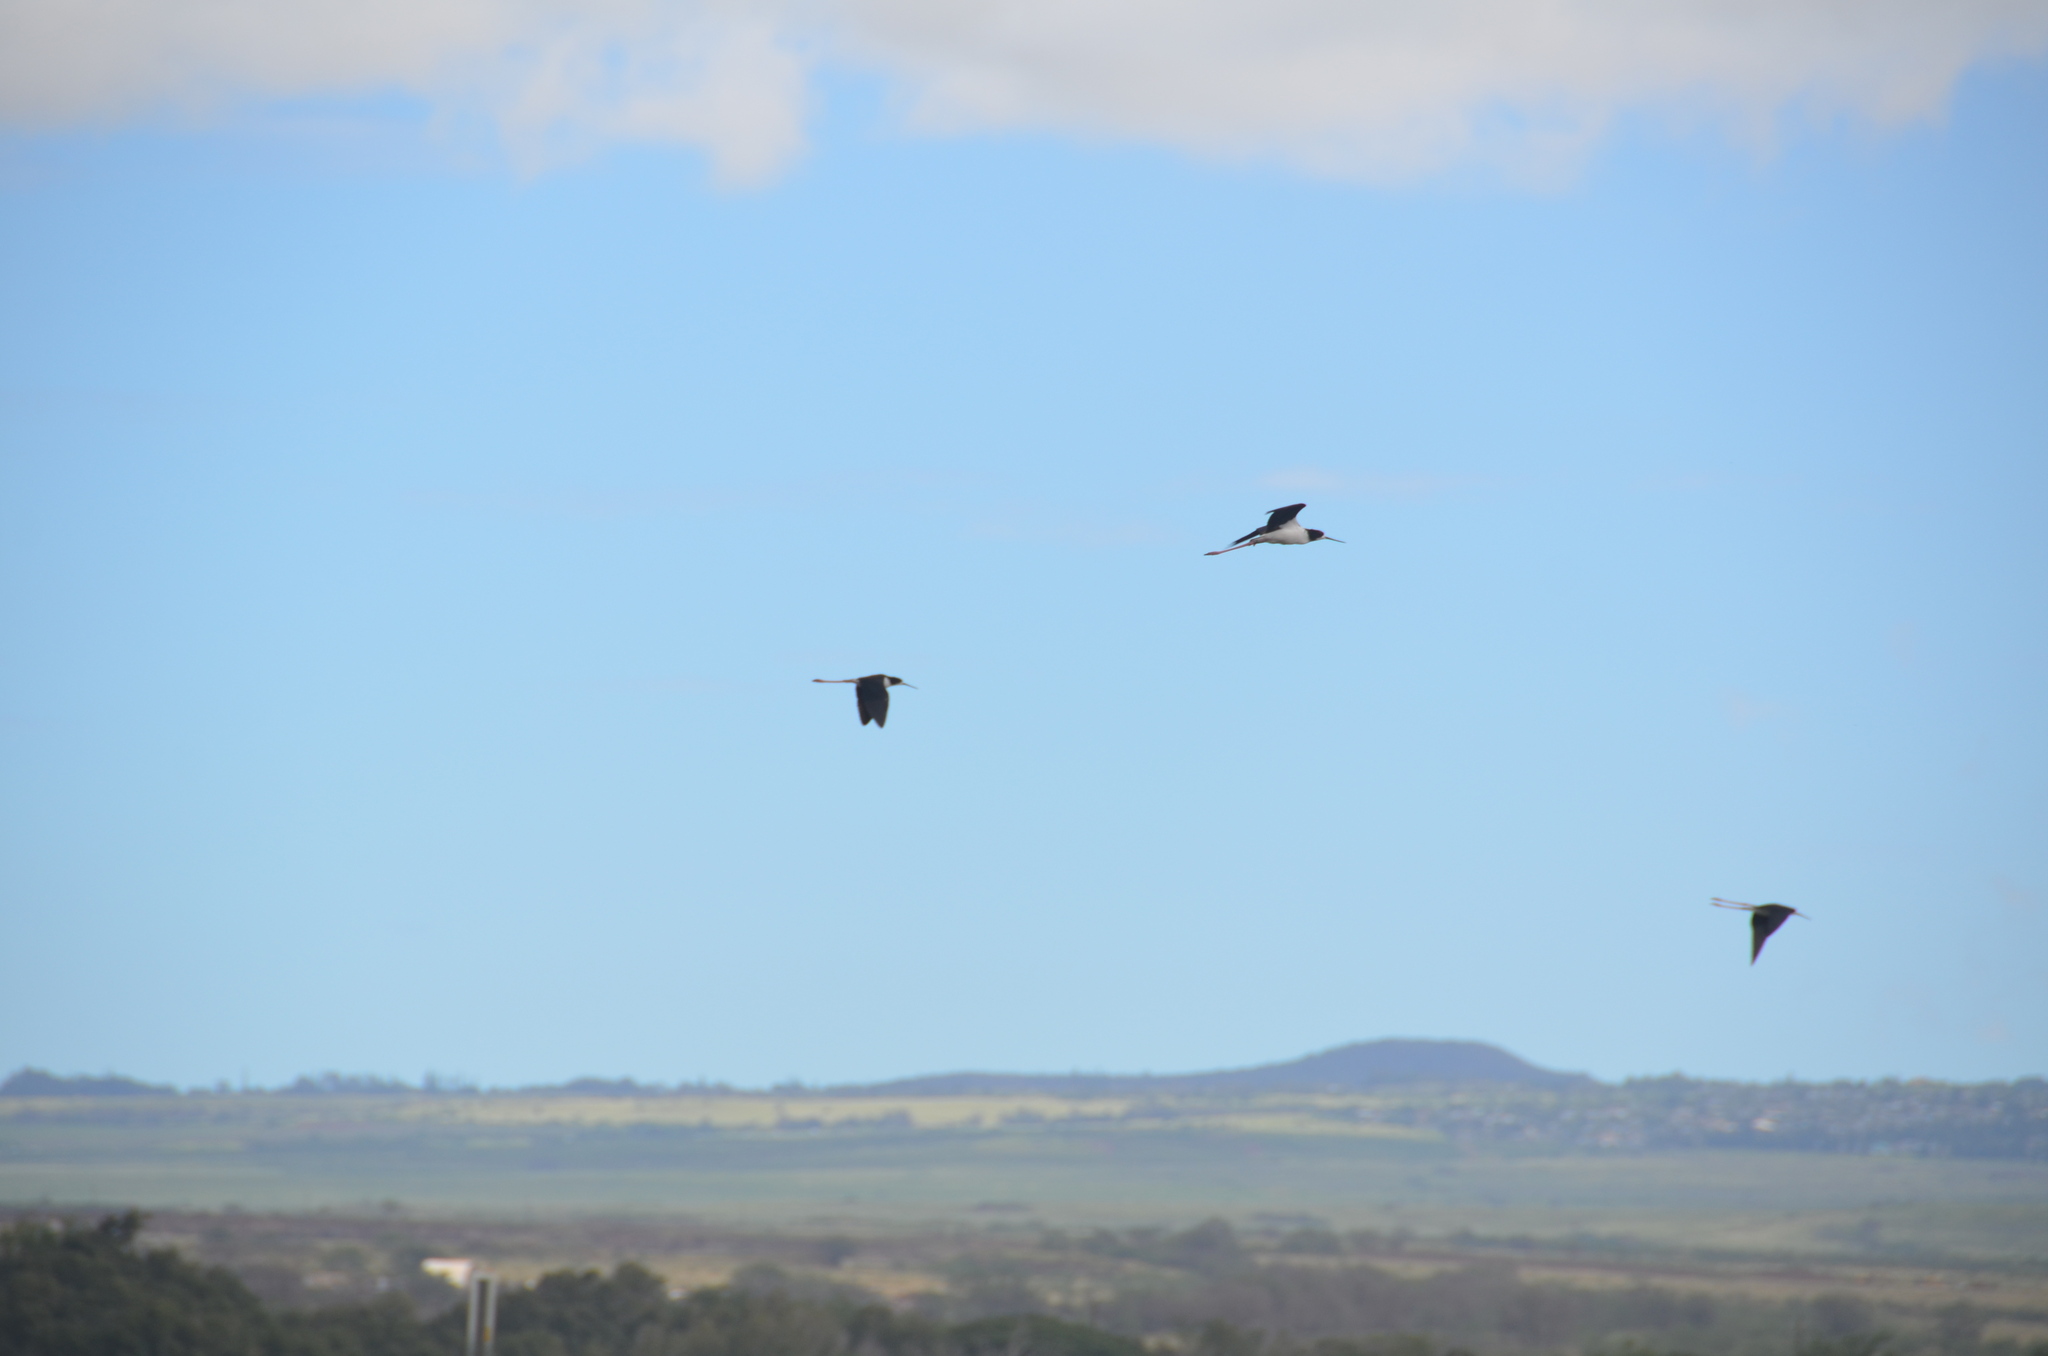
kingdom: Animalia
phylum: Chordata
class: Aves
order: Charadriiformes
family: Recurvirostridae
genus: Himantopus
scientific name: Himantopus mexicanus
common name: Black-necked stilt
